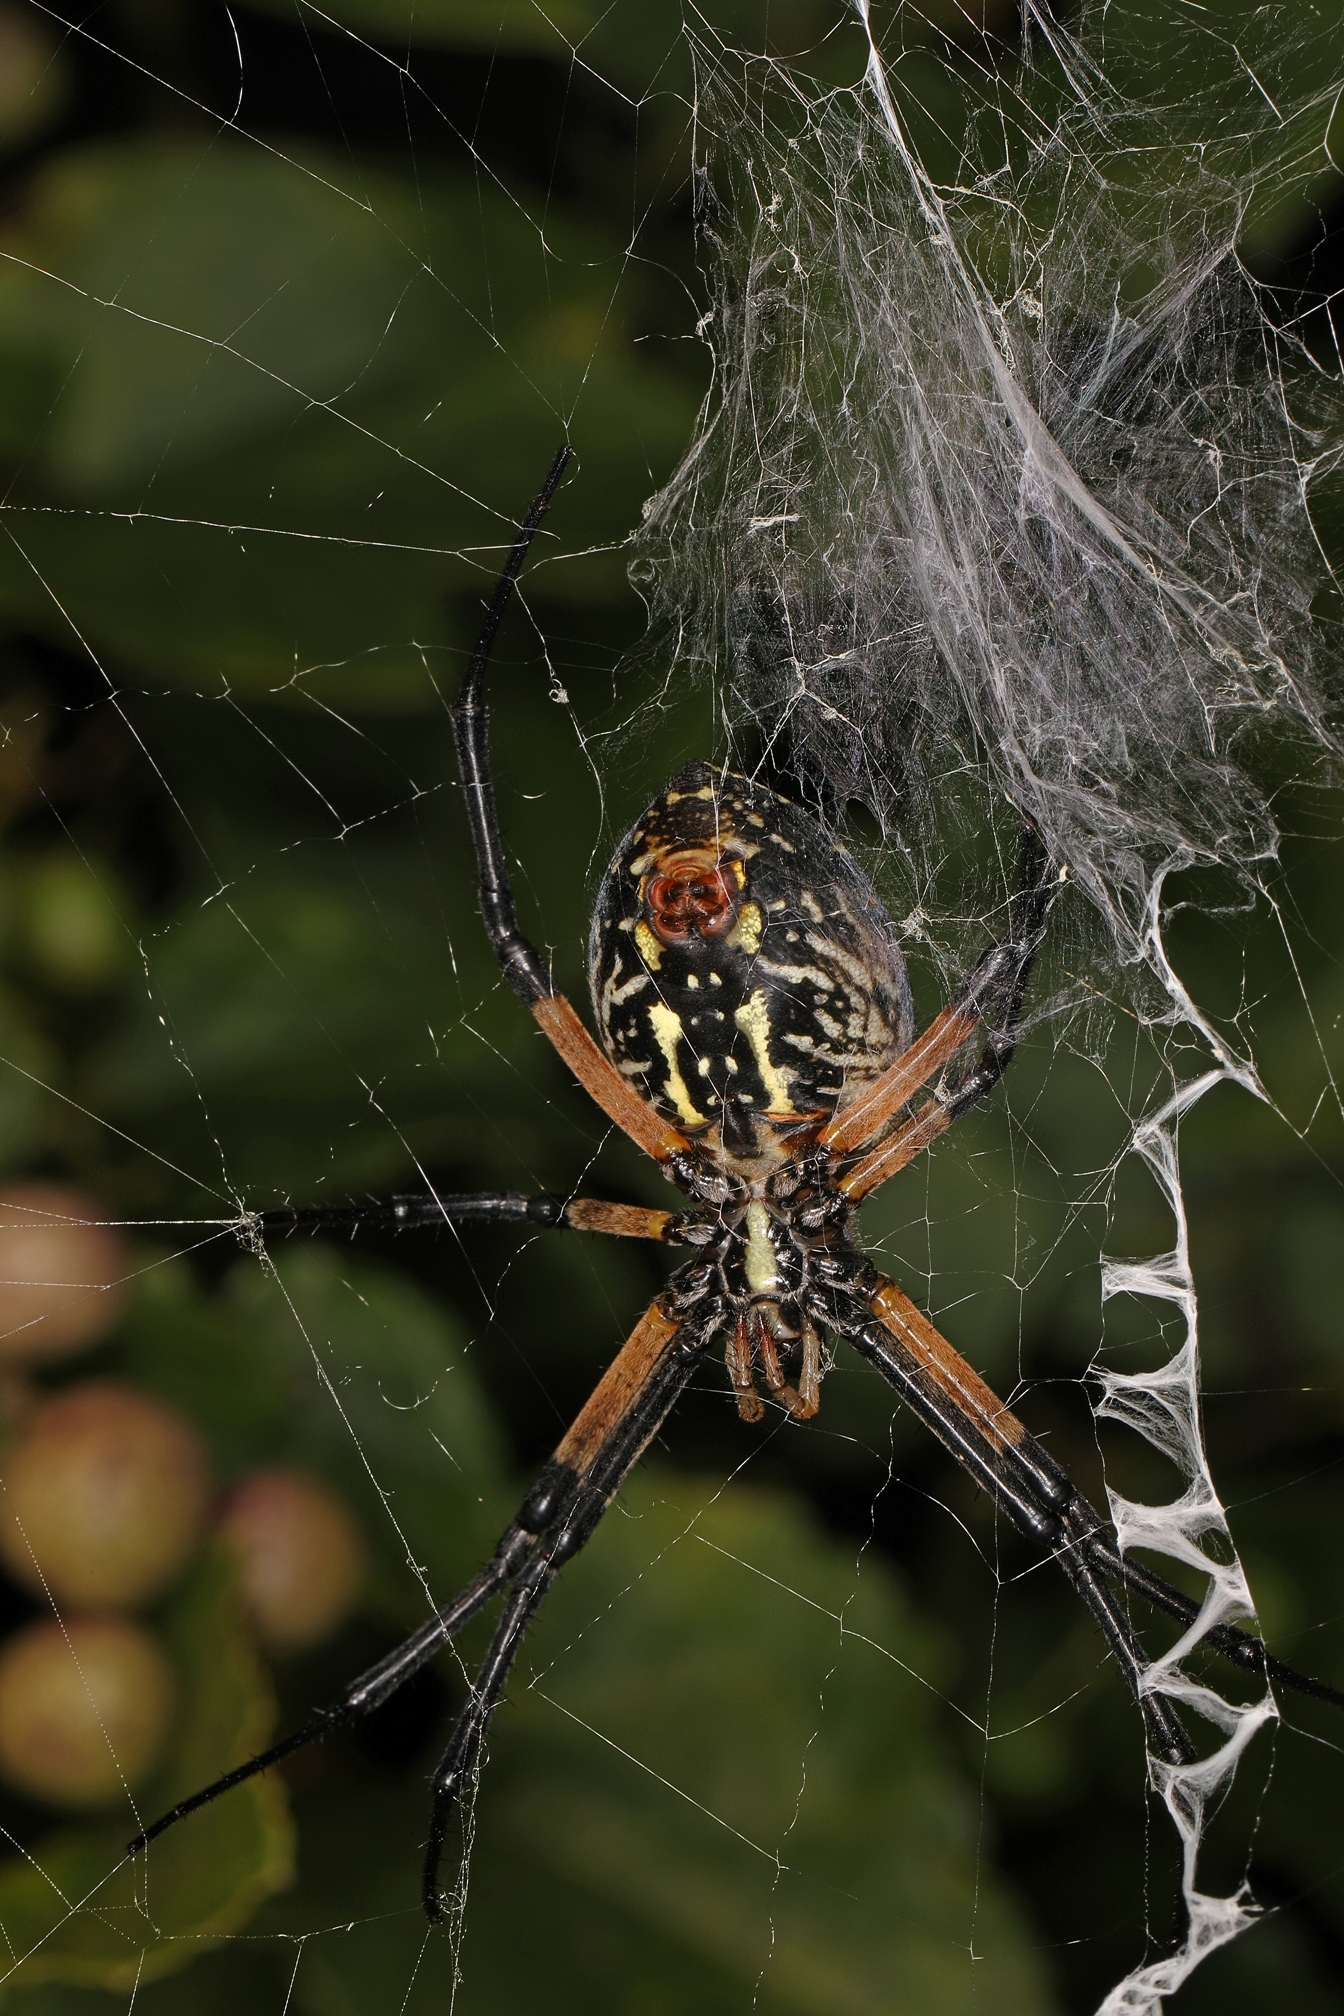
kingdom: Animalia
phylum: Arthropoda
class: Arachnida
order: Araneae
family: Araneidae
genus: Argiope
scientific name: Argiope aurantia
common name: Orb weavers
